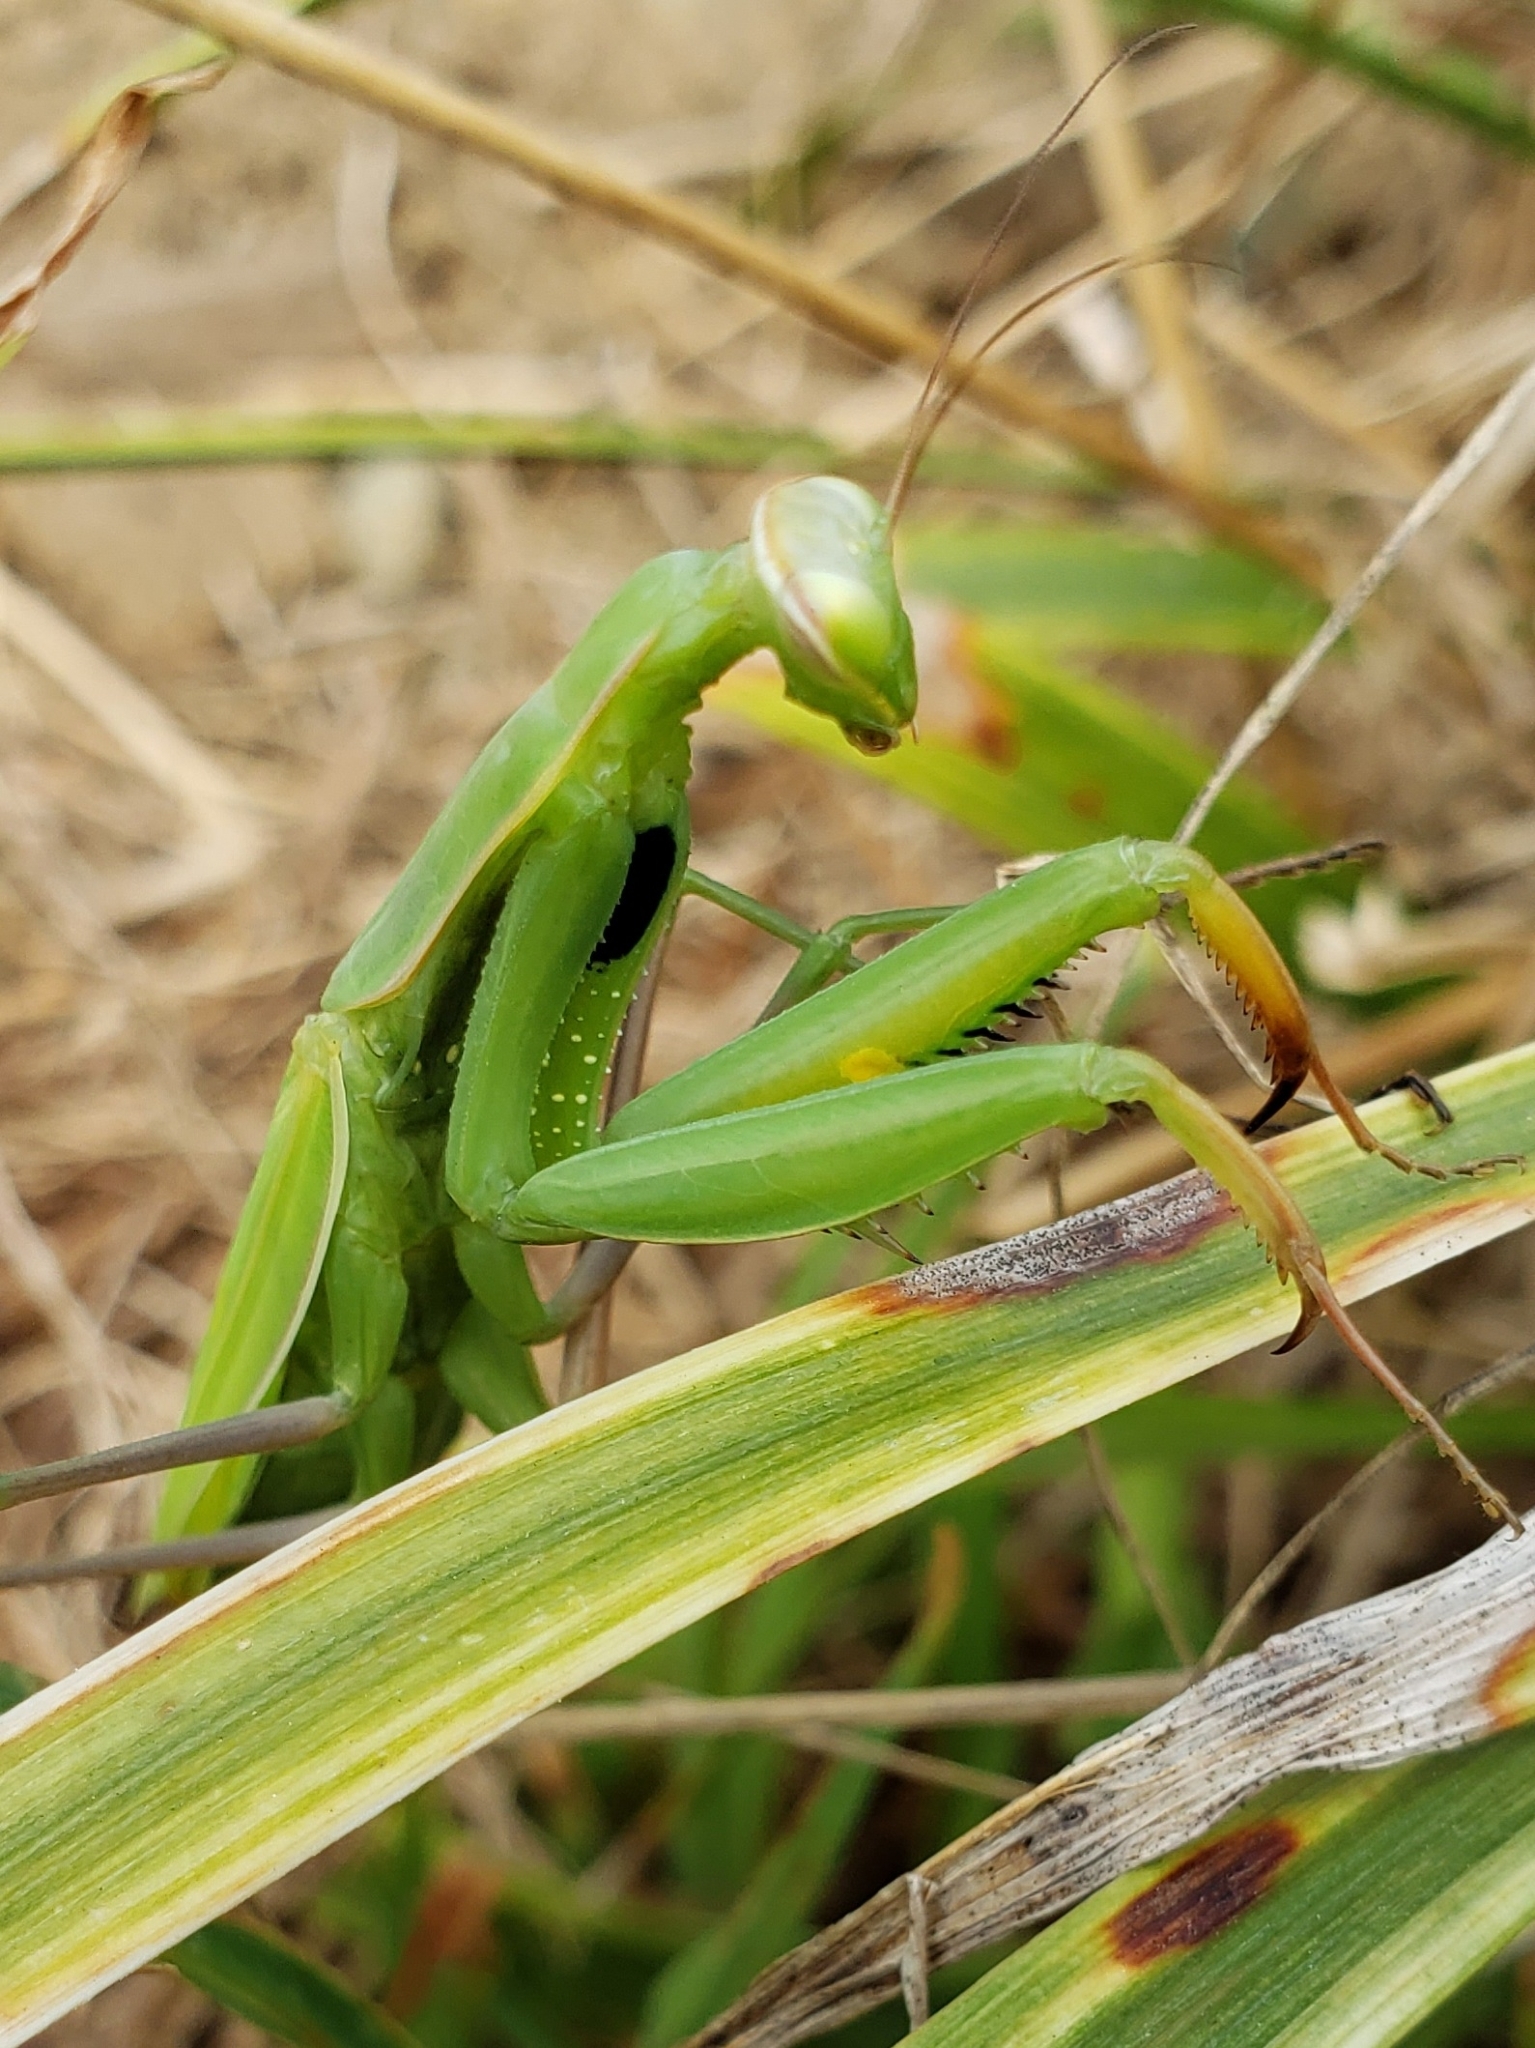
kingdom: Animalia
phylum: Arthropoda
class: Insecta
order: Mantodea
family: Mantidae
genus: Mantis
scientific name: Mantis religiosa
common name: Praying mantis
